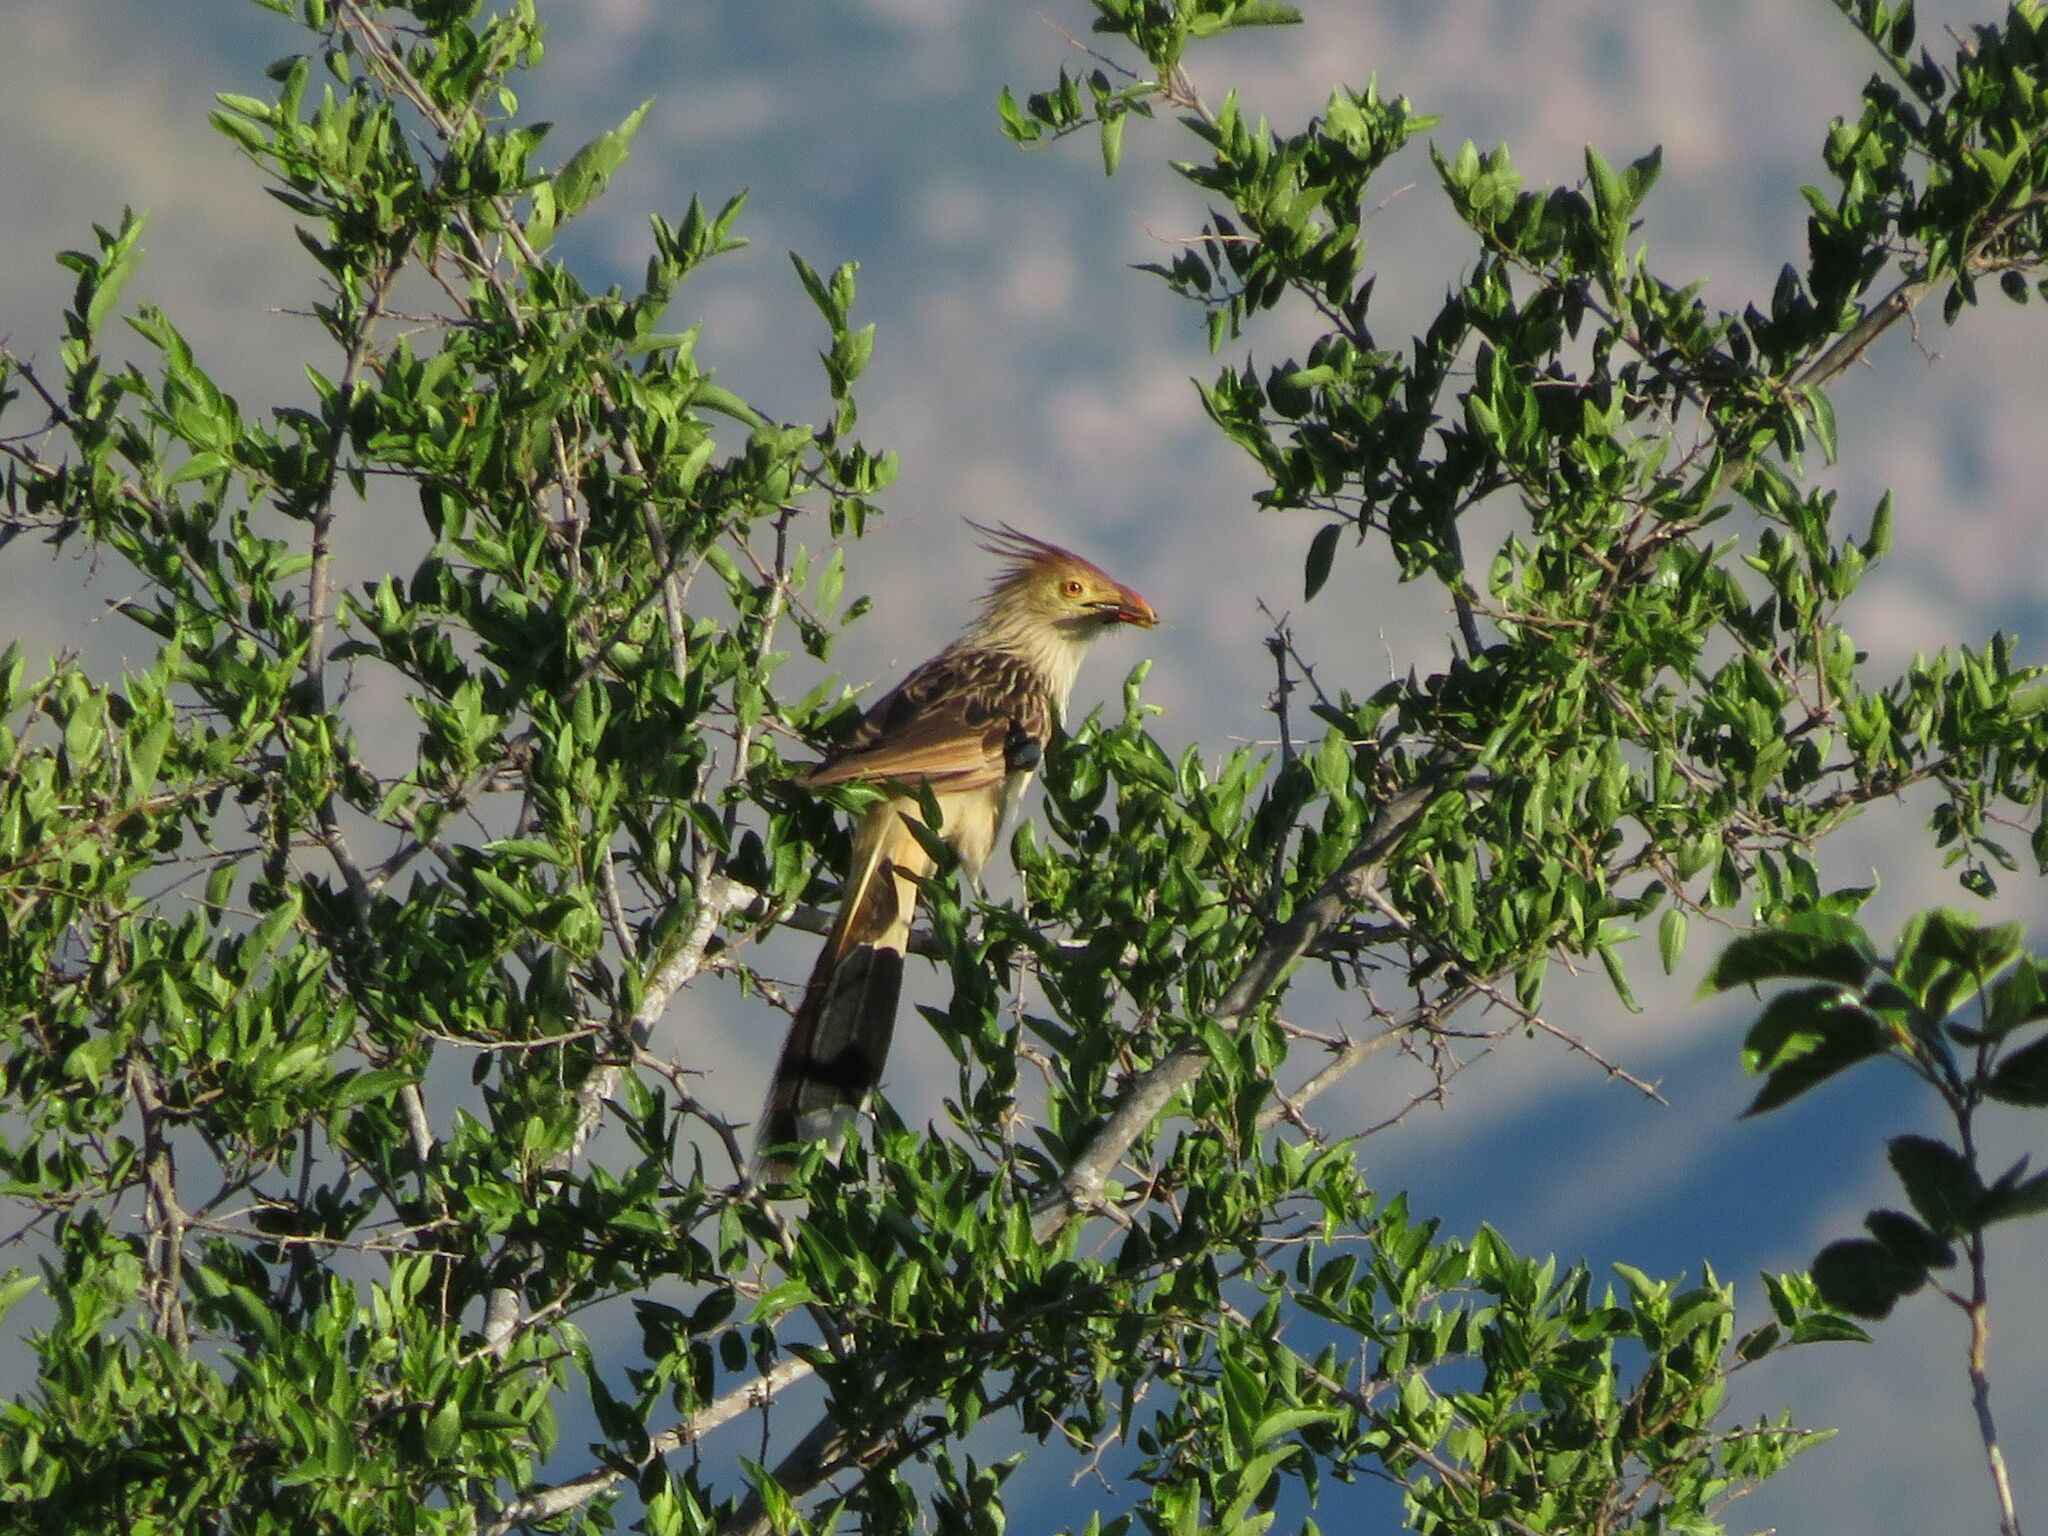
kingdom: Animalia
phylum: Chordata
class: Aves
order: Cuculiformes
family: Cuculidae
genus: Guira
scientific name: Guira guira
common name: Guira cuckoo
